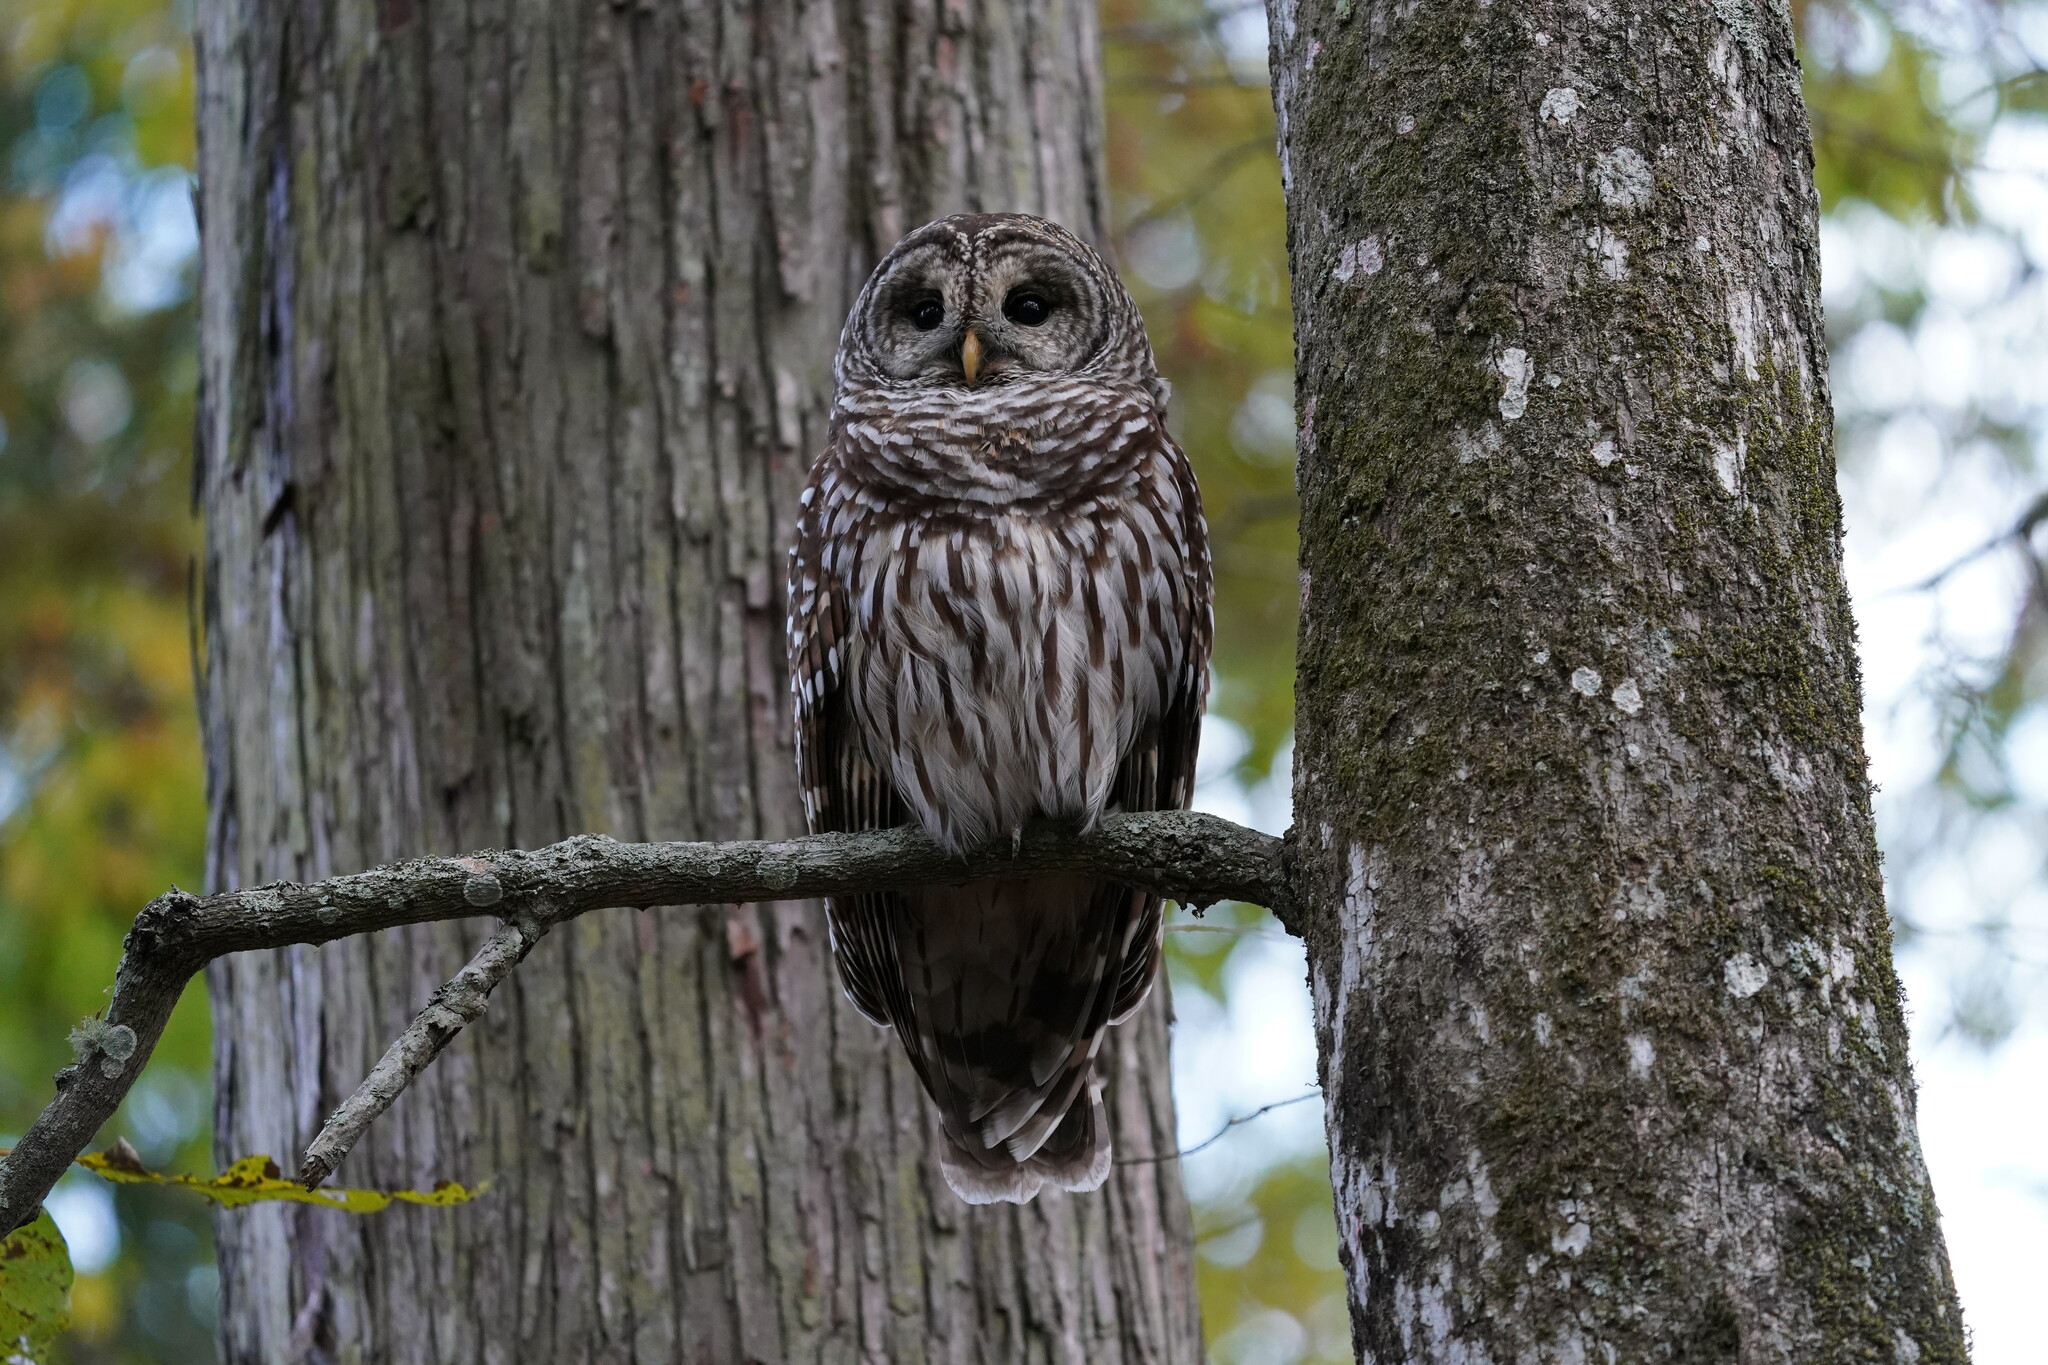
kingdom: Animalia
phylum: Chordata
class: Aves
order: Strigiformes
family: Strigidae
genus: Strix
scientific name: Strix varia
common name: Barred owl
